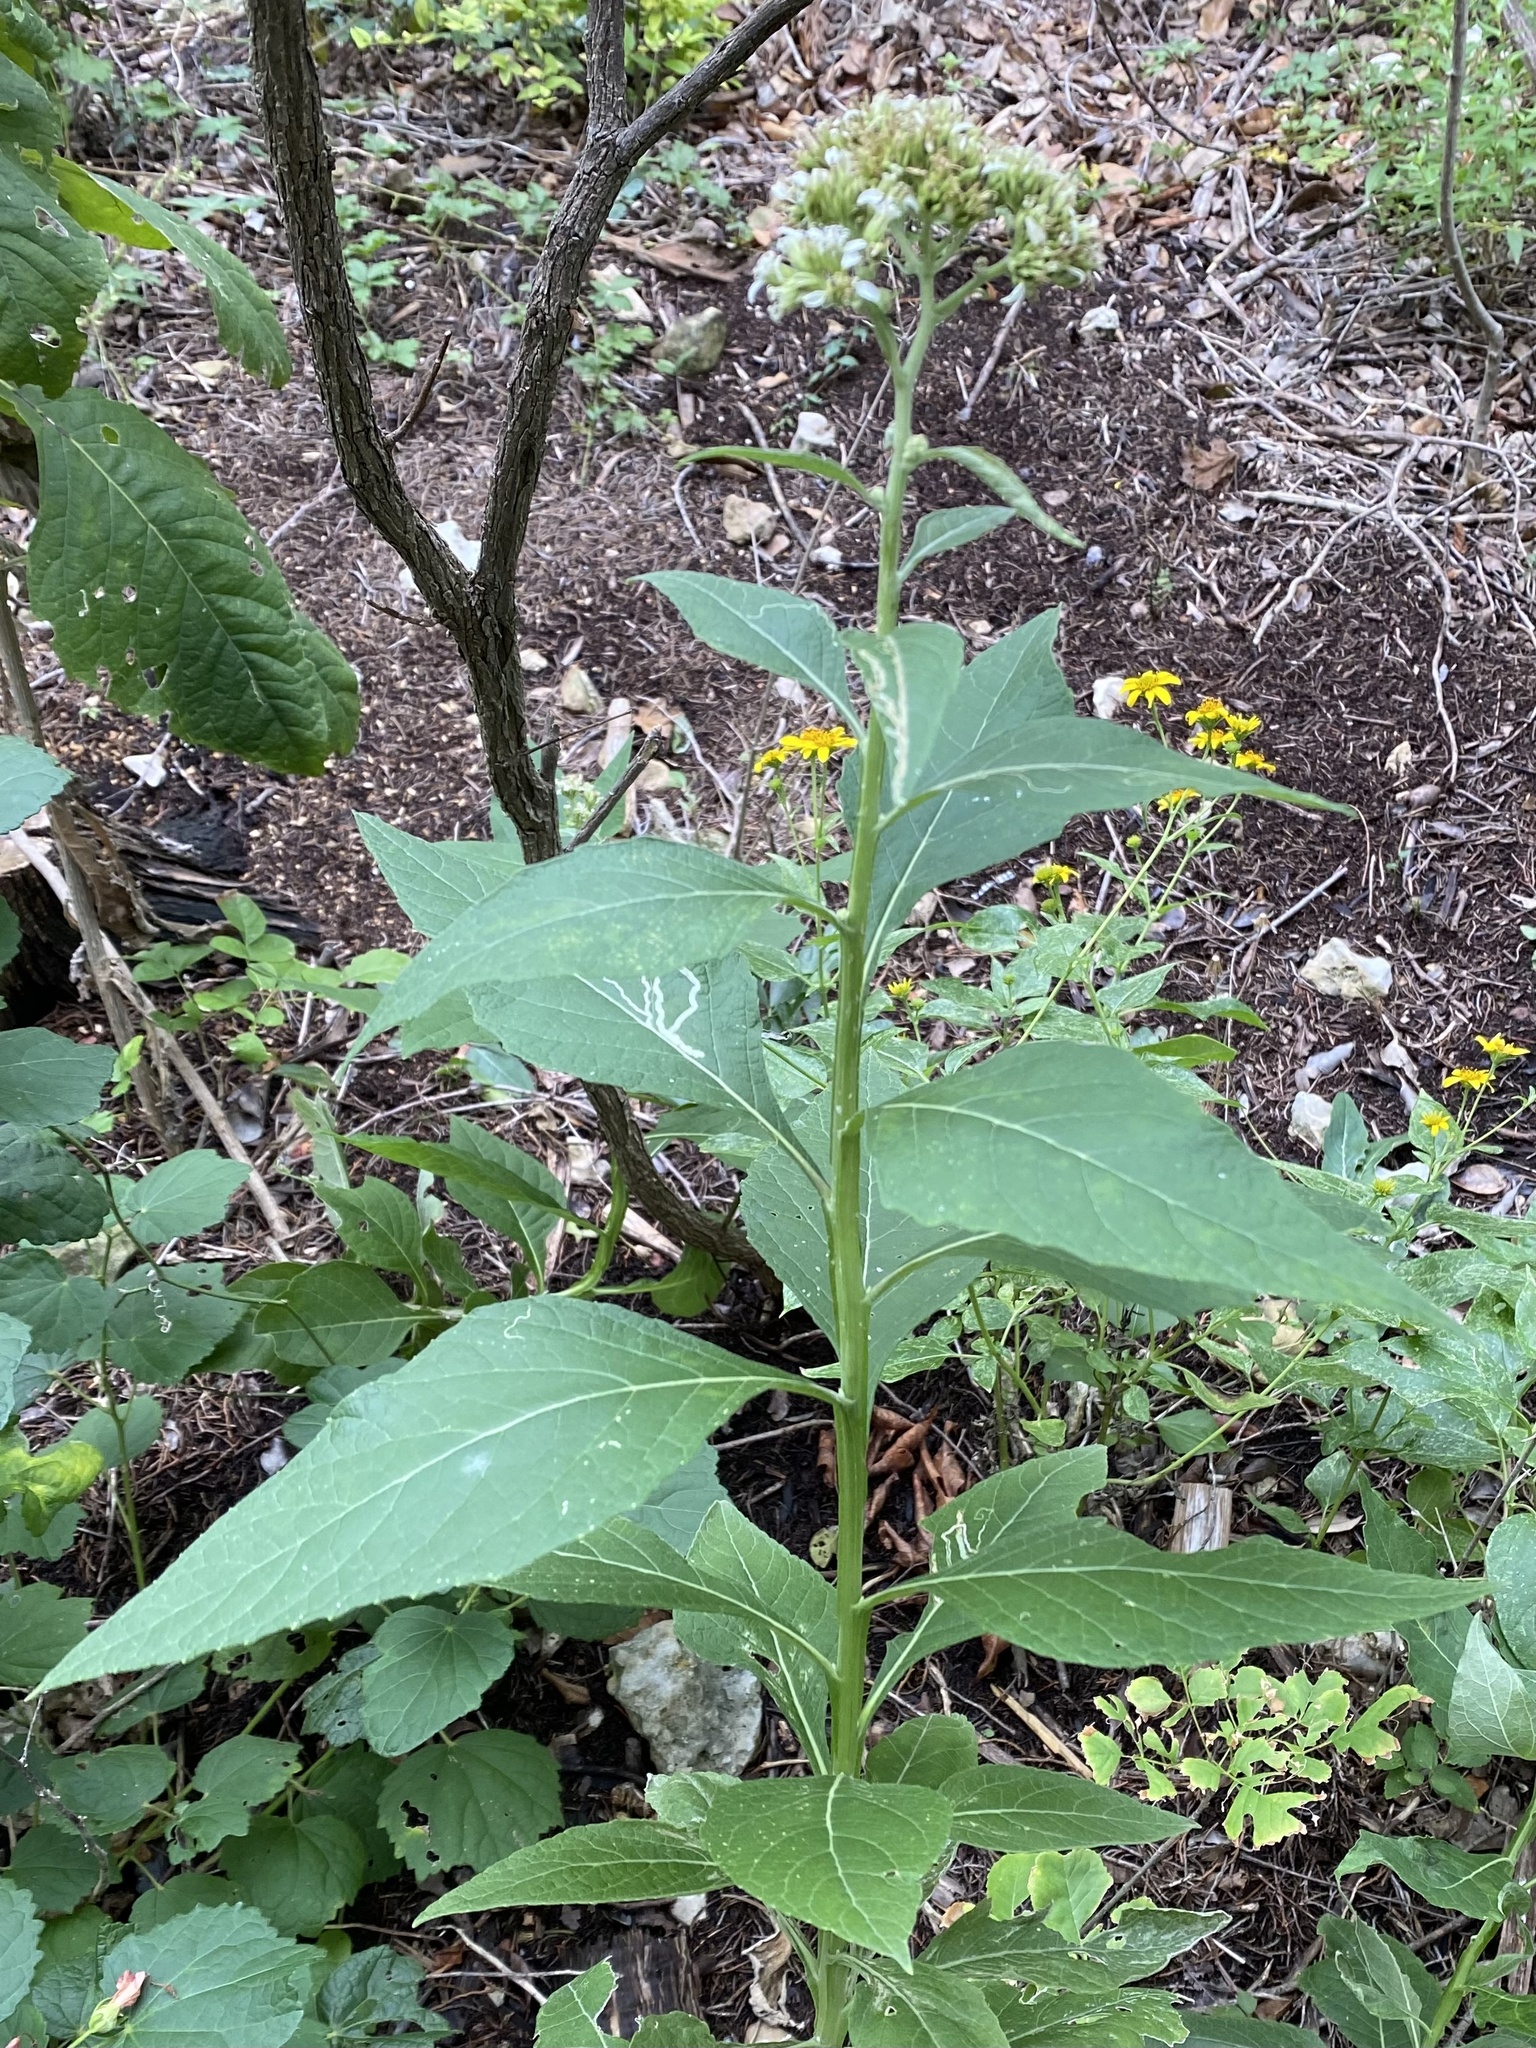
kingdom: Plantae
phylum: Tracheophyta
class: Magnoliopsida
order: Asterales
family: Asteraceae
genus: Verbesina
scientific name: Verbesina virginica
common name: Frostweed
